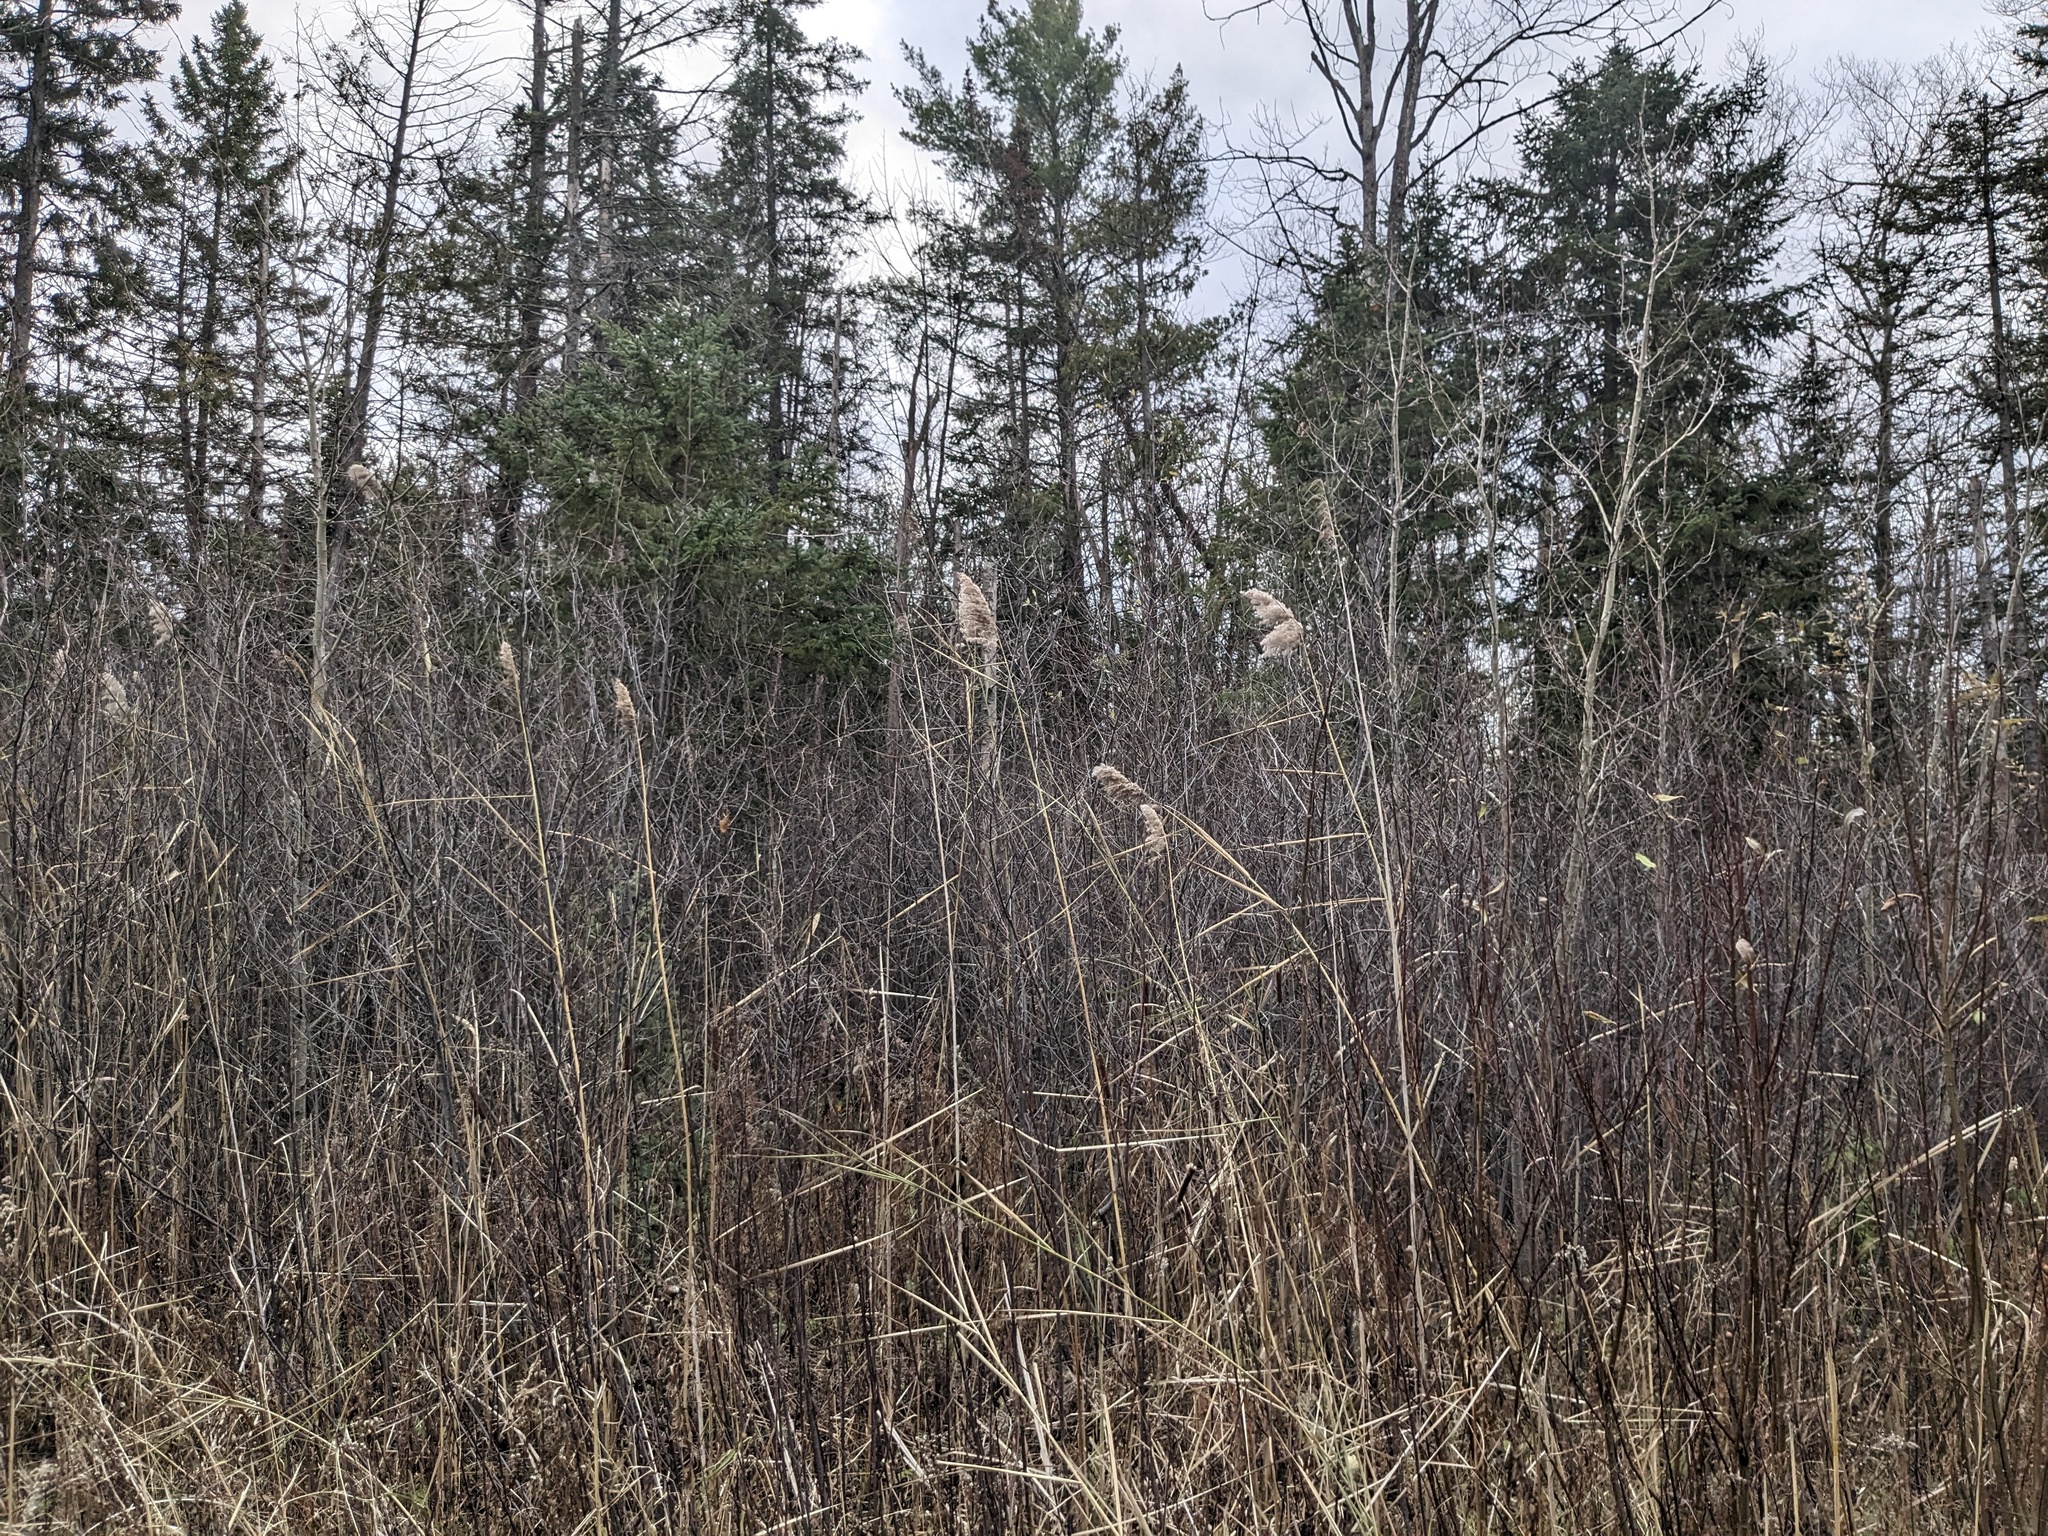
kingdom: Plantae
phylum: Tracheophyta
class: Liliopsida
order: Poales
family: Poaceae
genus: Phragmites
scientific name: Phragmites australis
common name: Common reed
